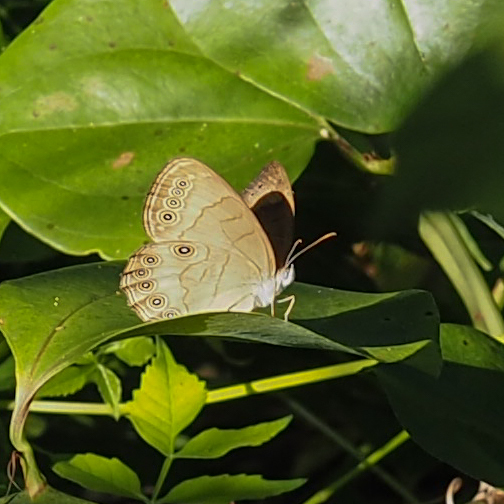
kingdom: Animalia
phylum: Arthropoda
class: Insecta
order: Lepidoptera
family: Nymphalidae
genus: Lethe
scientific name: Lethe eurydice
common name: Eyed brown
